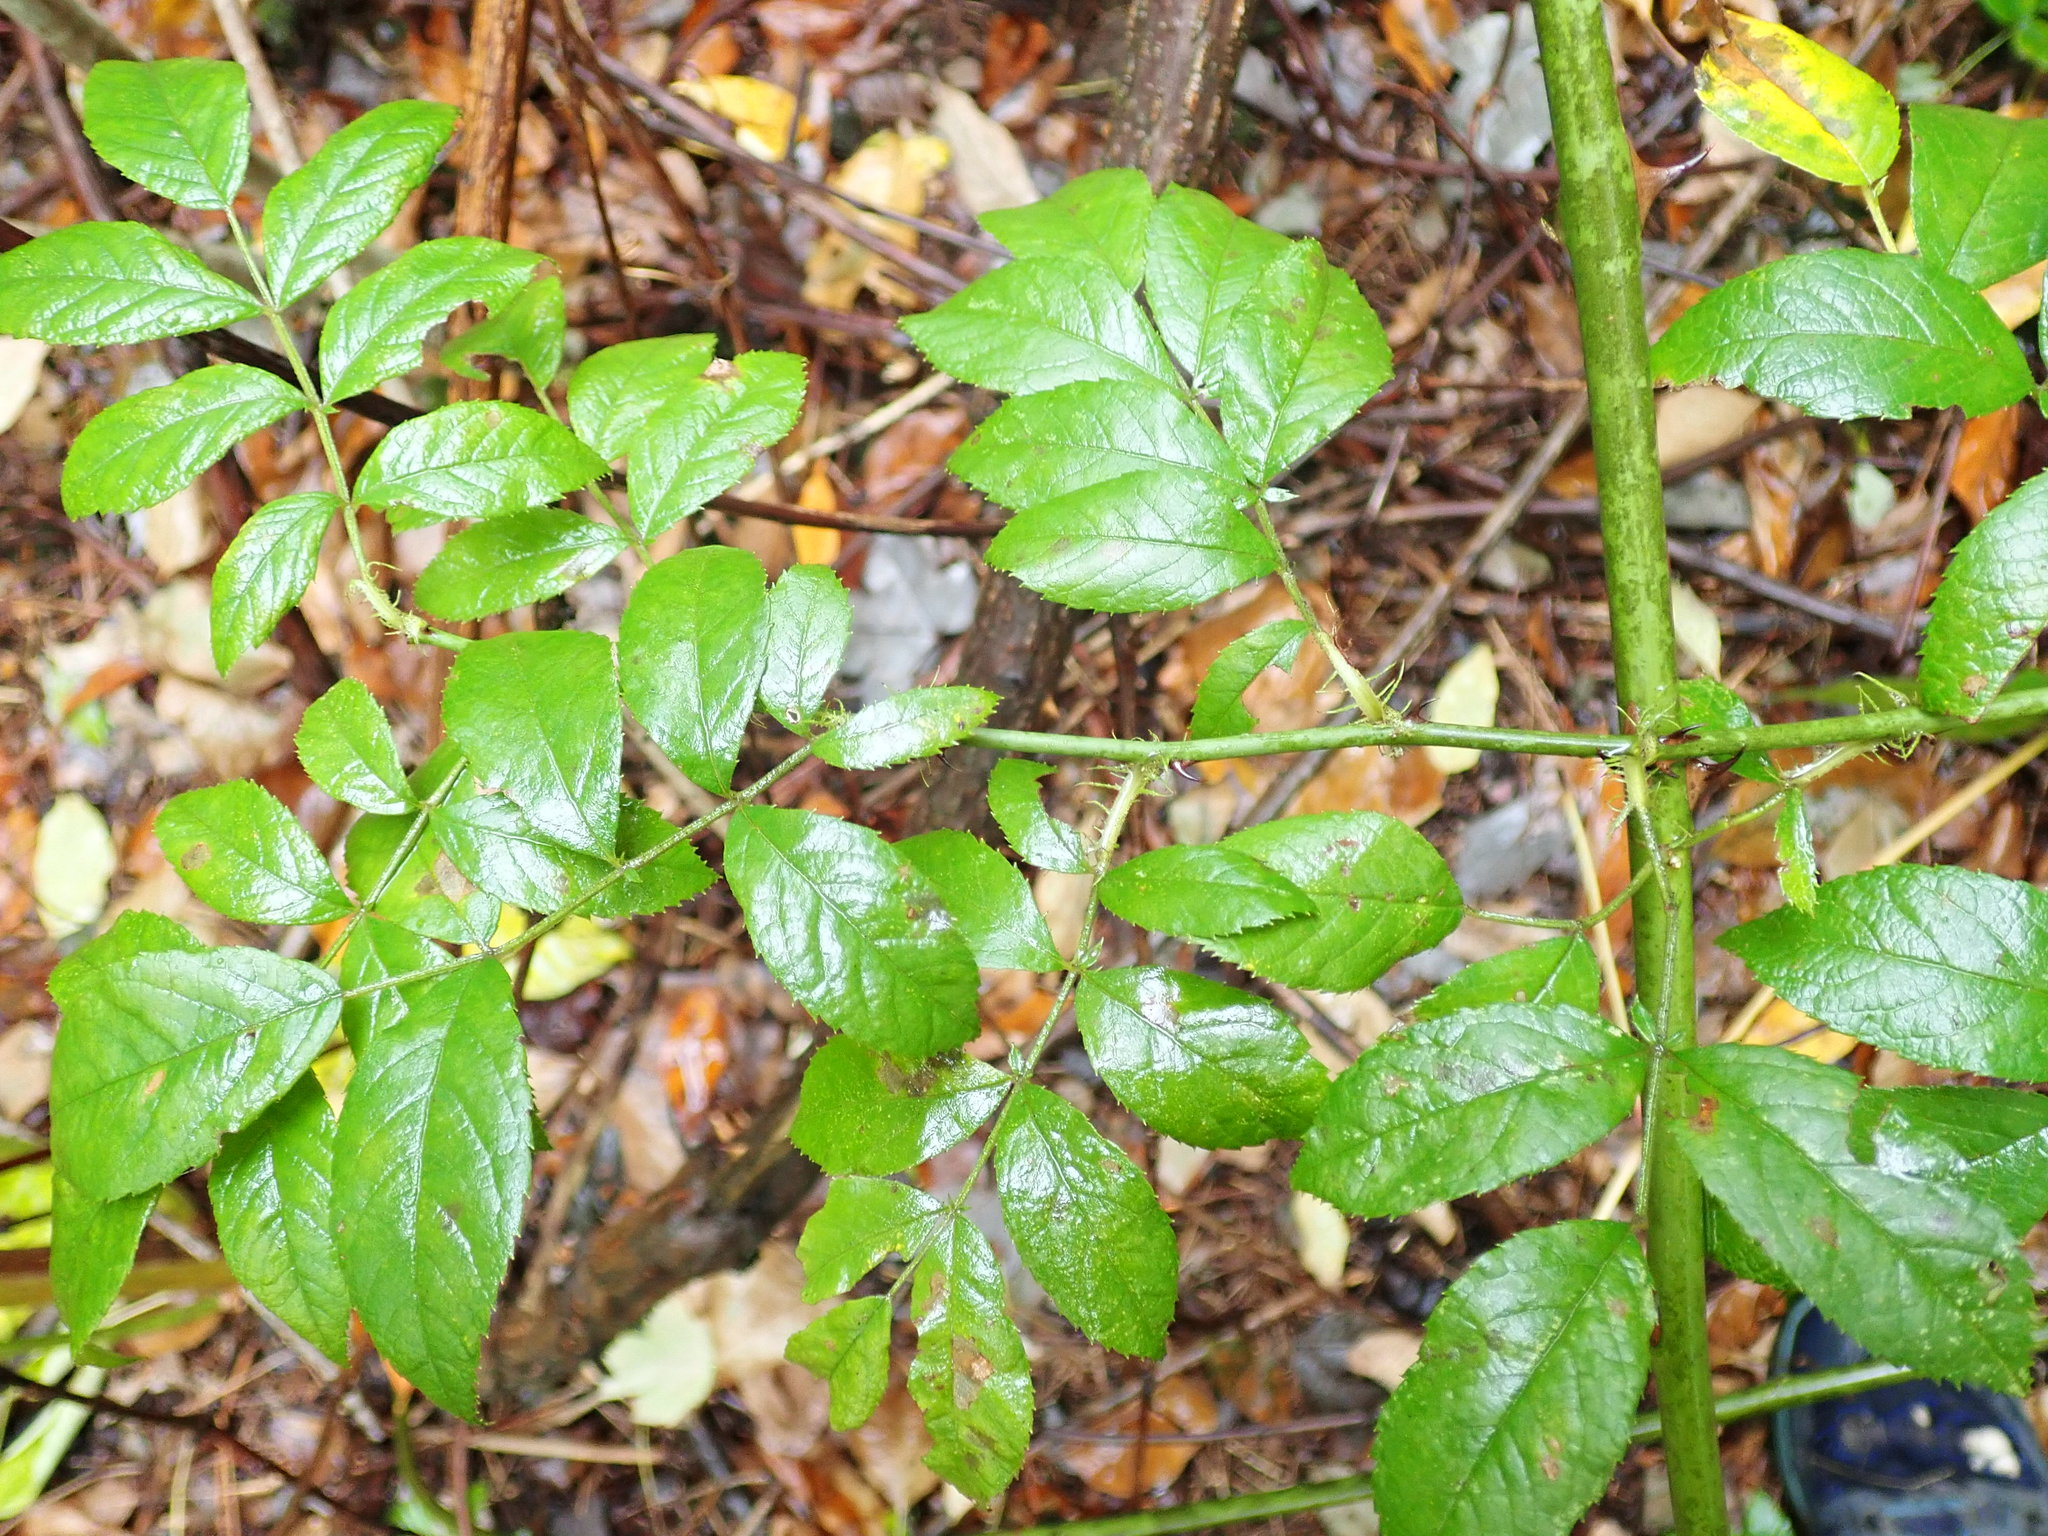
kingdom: Plantae
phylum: Tracheophyta
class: Magnoliopsida
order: Rosales
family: Rosaceae
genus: Rosa
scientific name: Rosa multiflora
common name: Multiflora rose
